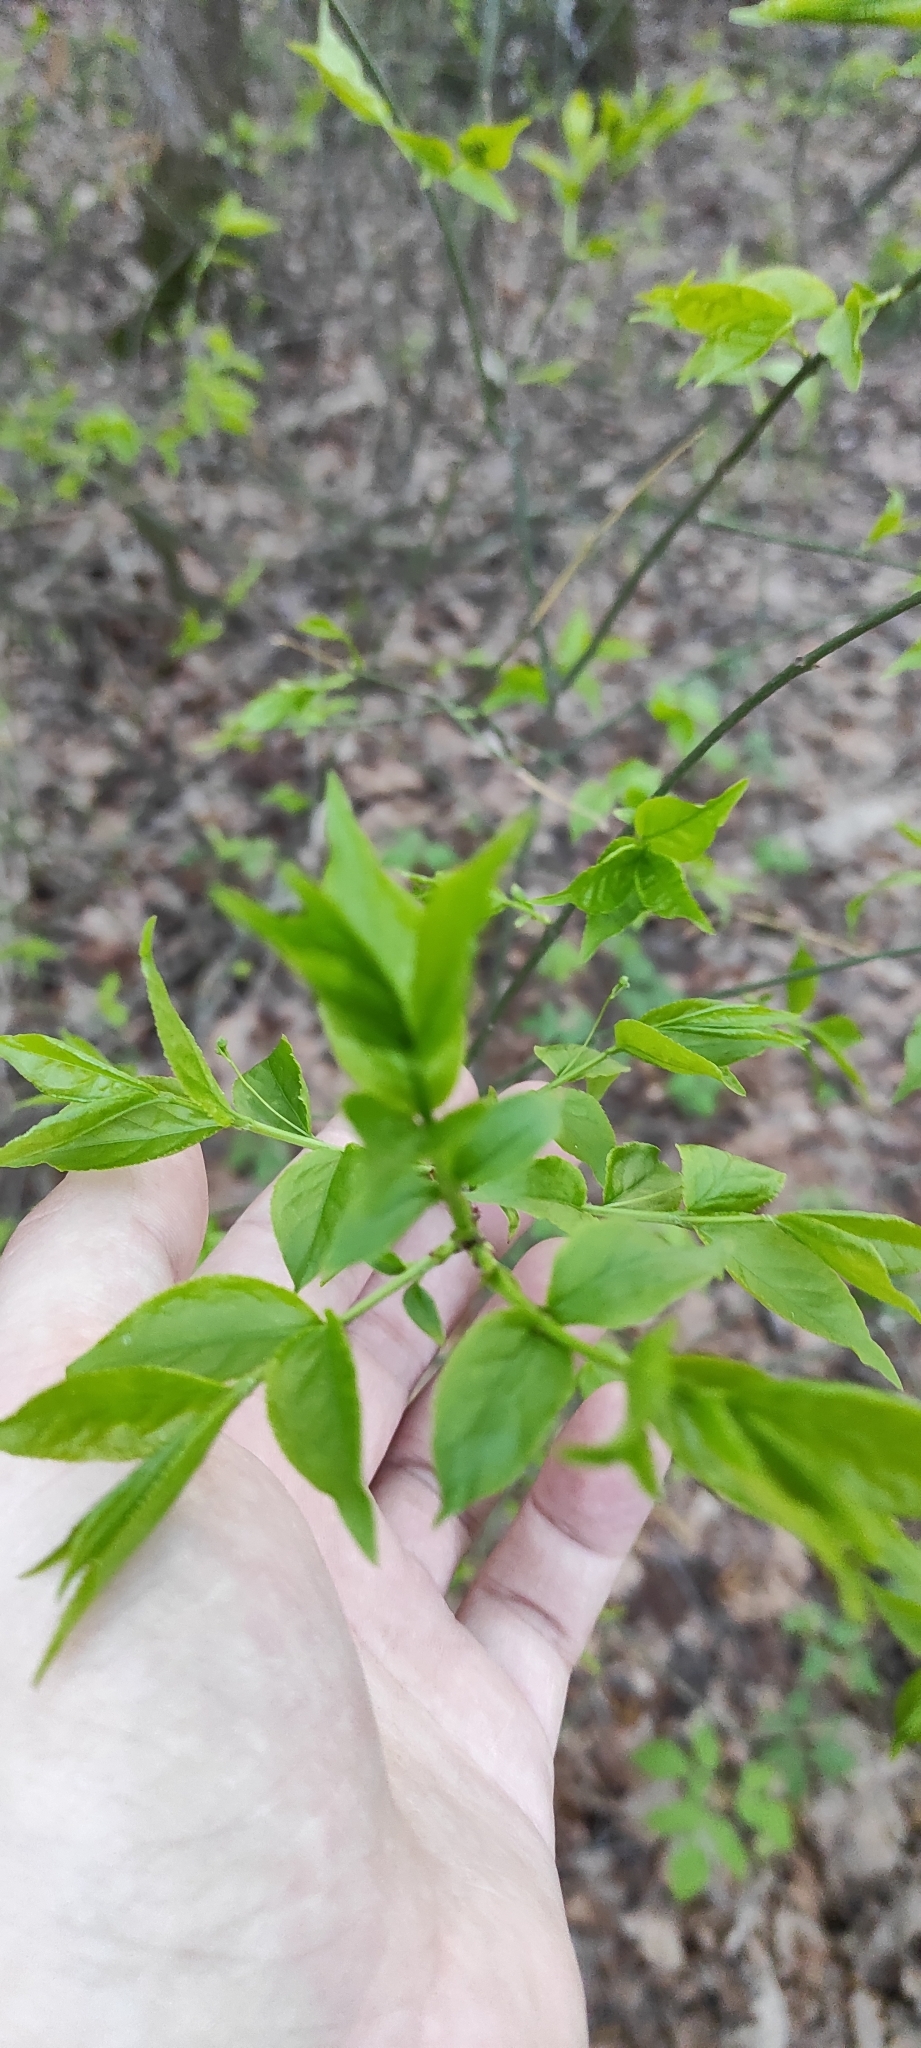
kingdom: Plantae
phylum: Tracheophyta
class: Magnoliopsida
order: Celastrales
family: Celastraceae
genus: Euonymus
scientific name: Euonymus verrucosus
